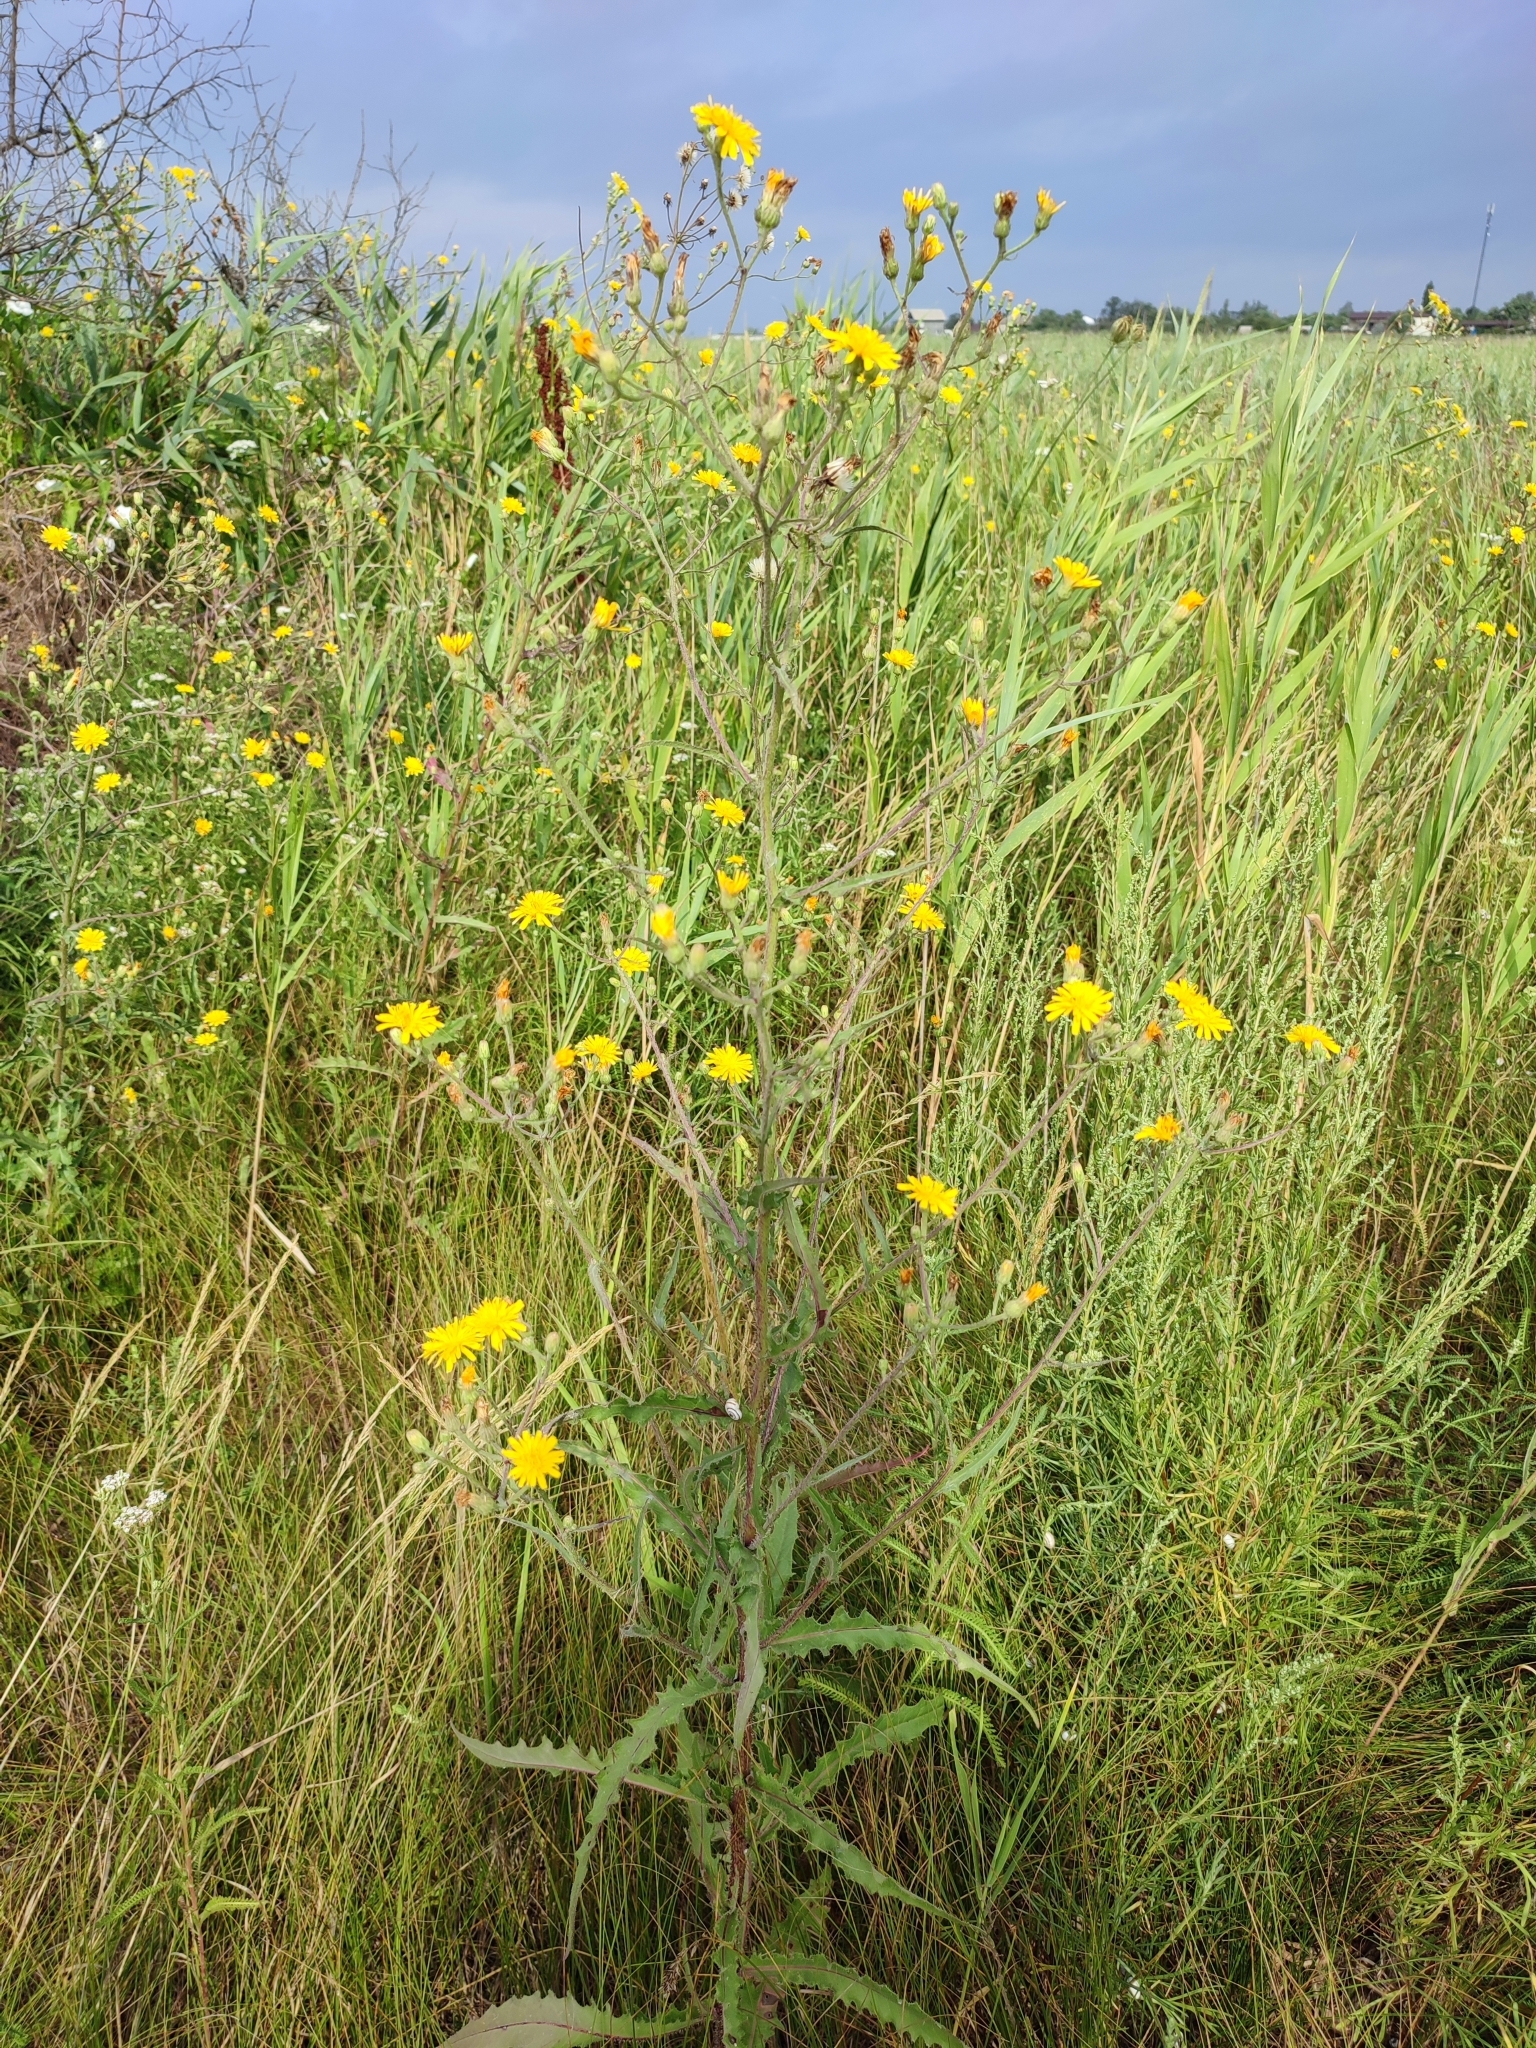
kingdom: Plantae
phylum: Tracheophyta
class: Magnoliopsida
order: Asterales
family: Asteraceae
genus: Picris
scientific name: Picris hieracioides
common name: Hawkweed oxtongue
